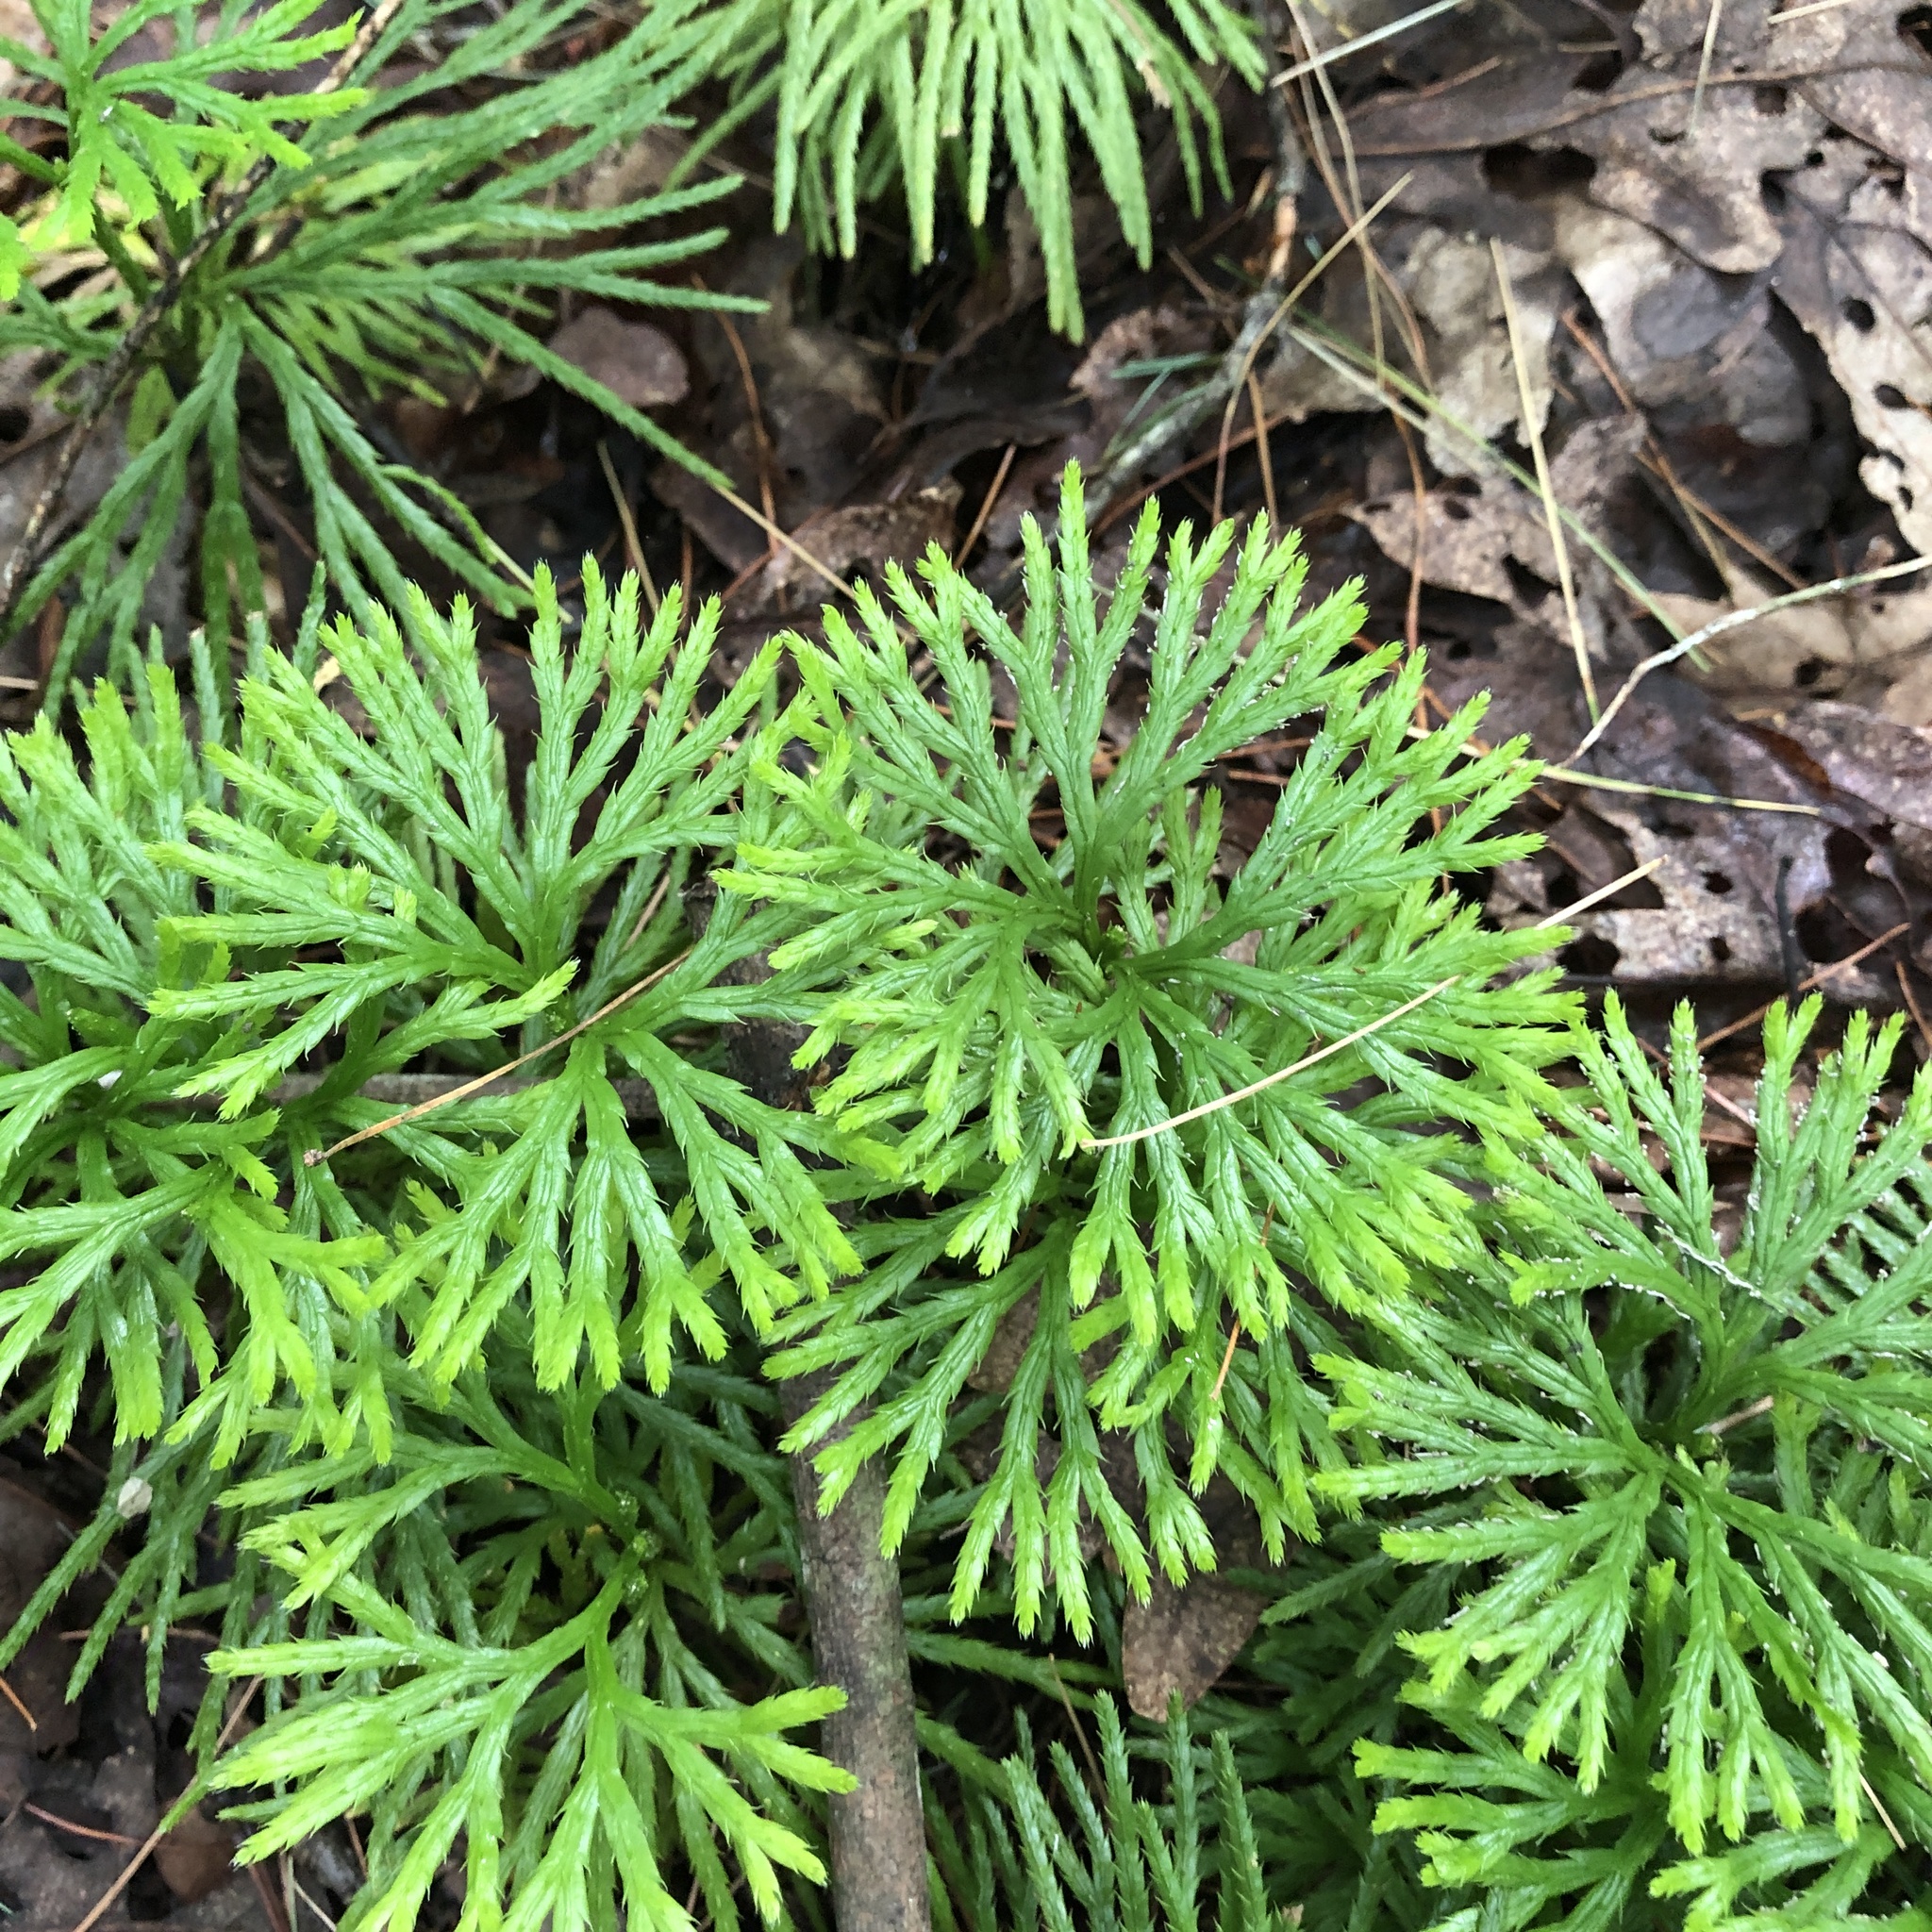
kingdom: Plantae
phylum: Tracheophyta
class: Lycopodiopsida
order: Lycopodiales
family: Lycopodiaceae
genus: Diphasiastrum
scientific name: Diphasiastrum digitatum
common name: Southern running-pine
